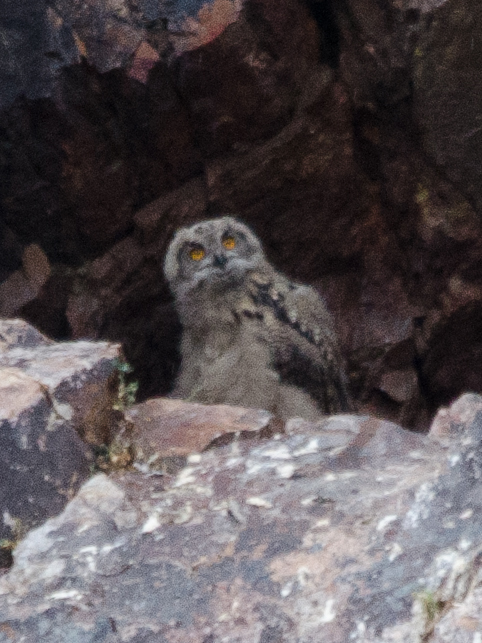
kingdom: Animalia
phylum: Chordata
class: Aves
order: Strigiformes
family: Strigidae
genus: Bubo
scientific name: Bubo bubo
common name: Eurasian eagle-owl
